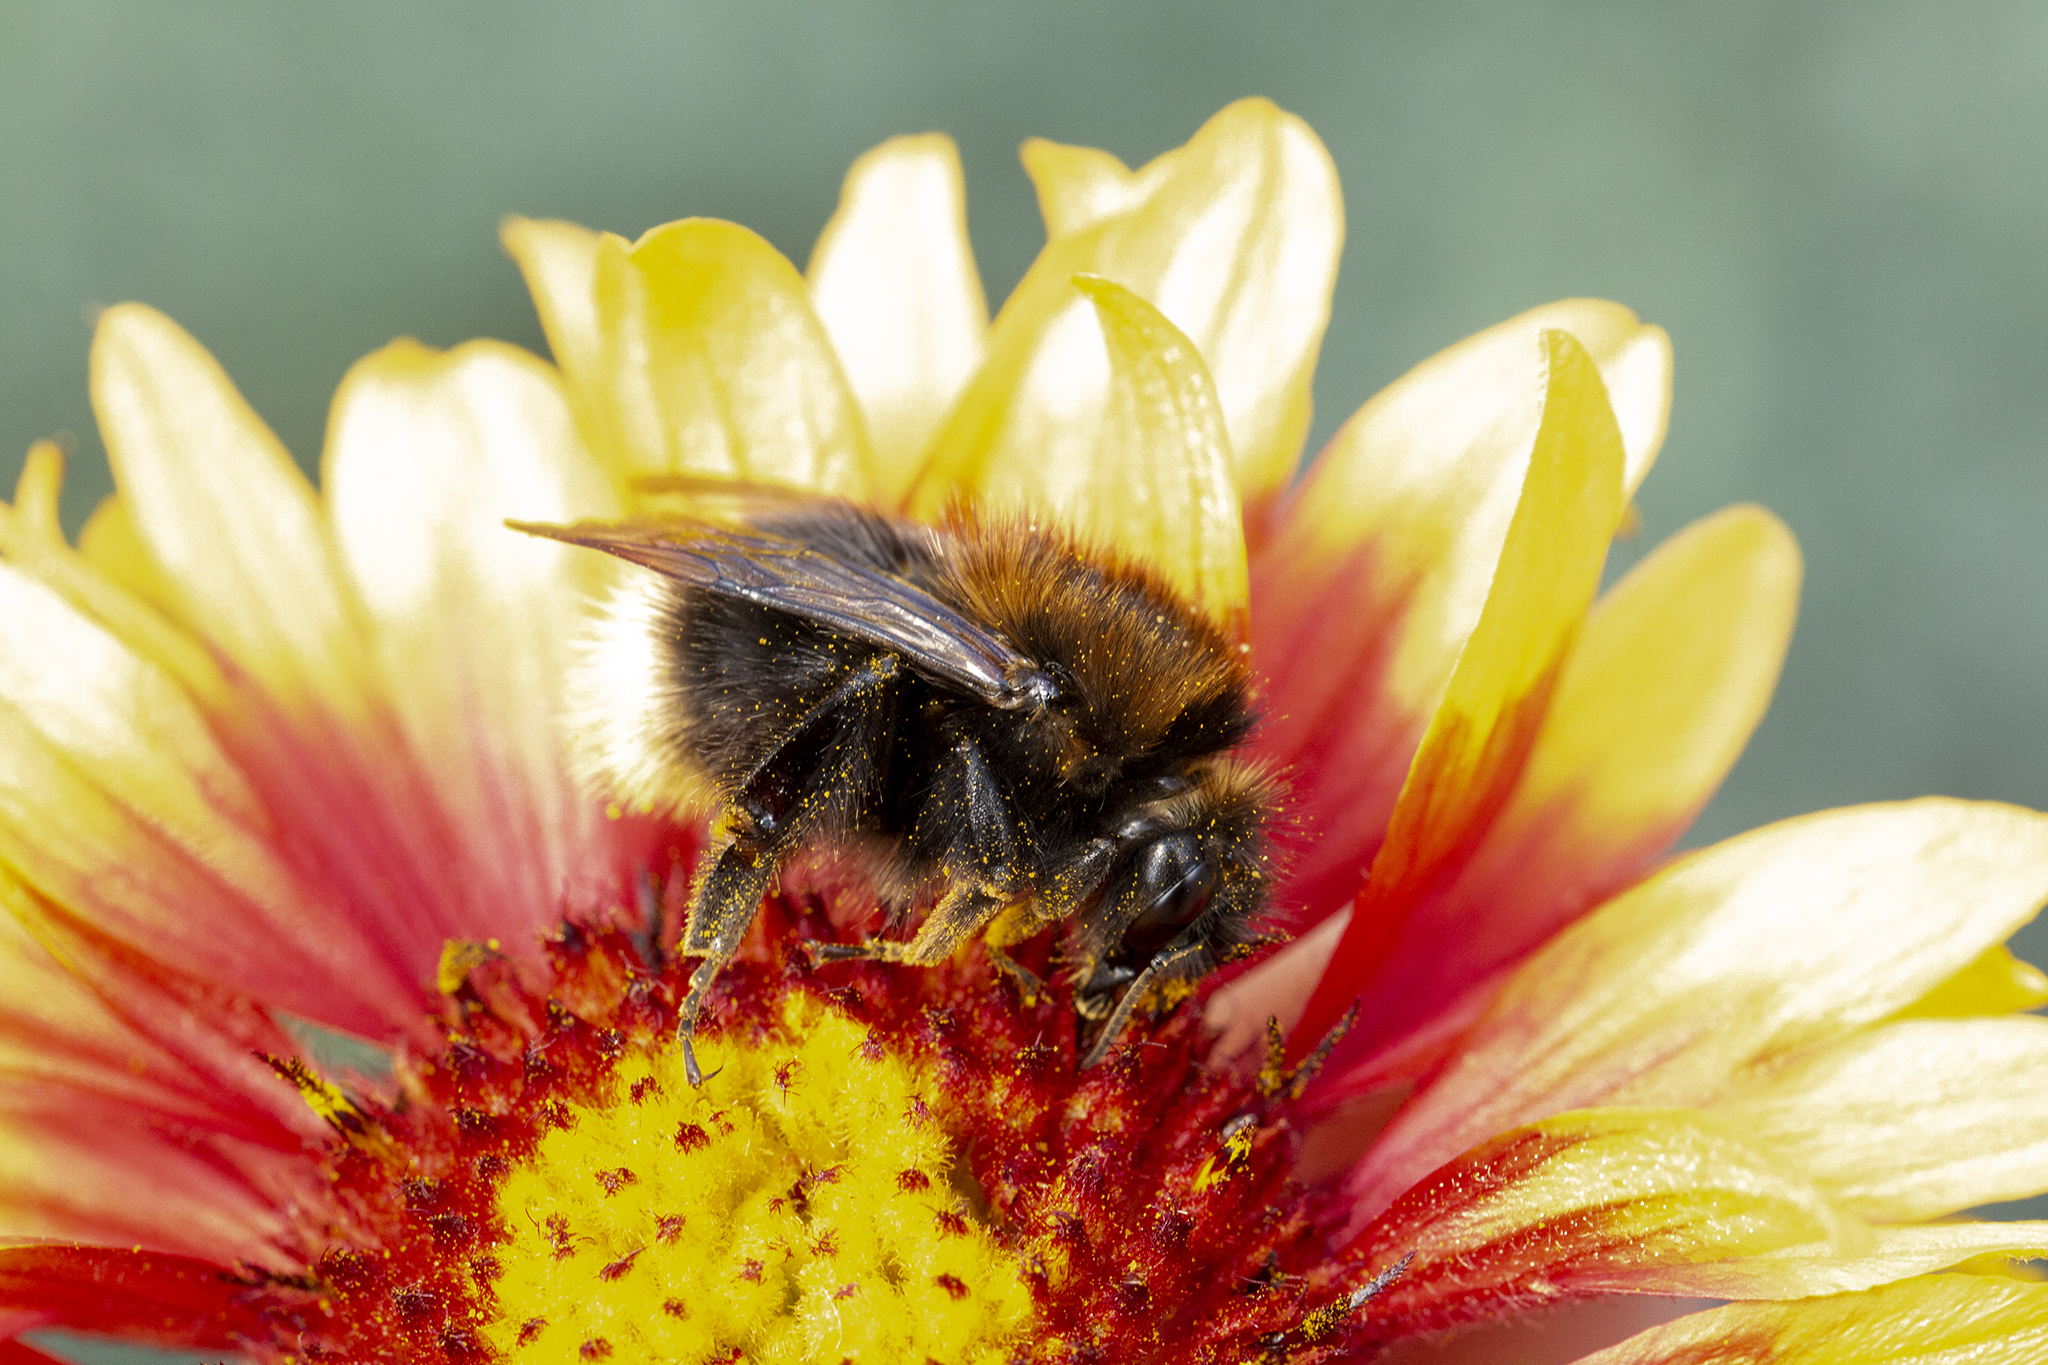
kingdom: Animalia
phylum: Arthropoda
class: Insecta
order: Hymenoptera
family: Apidae
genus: Bombus
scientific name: Bombus hypnorum
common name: New garden bumblebee
